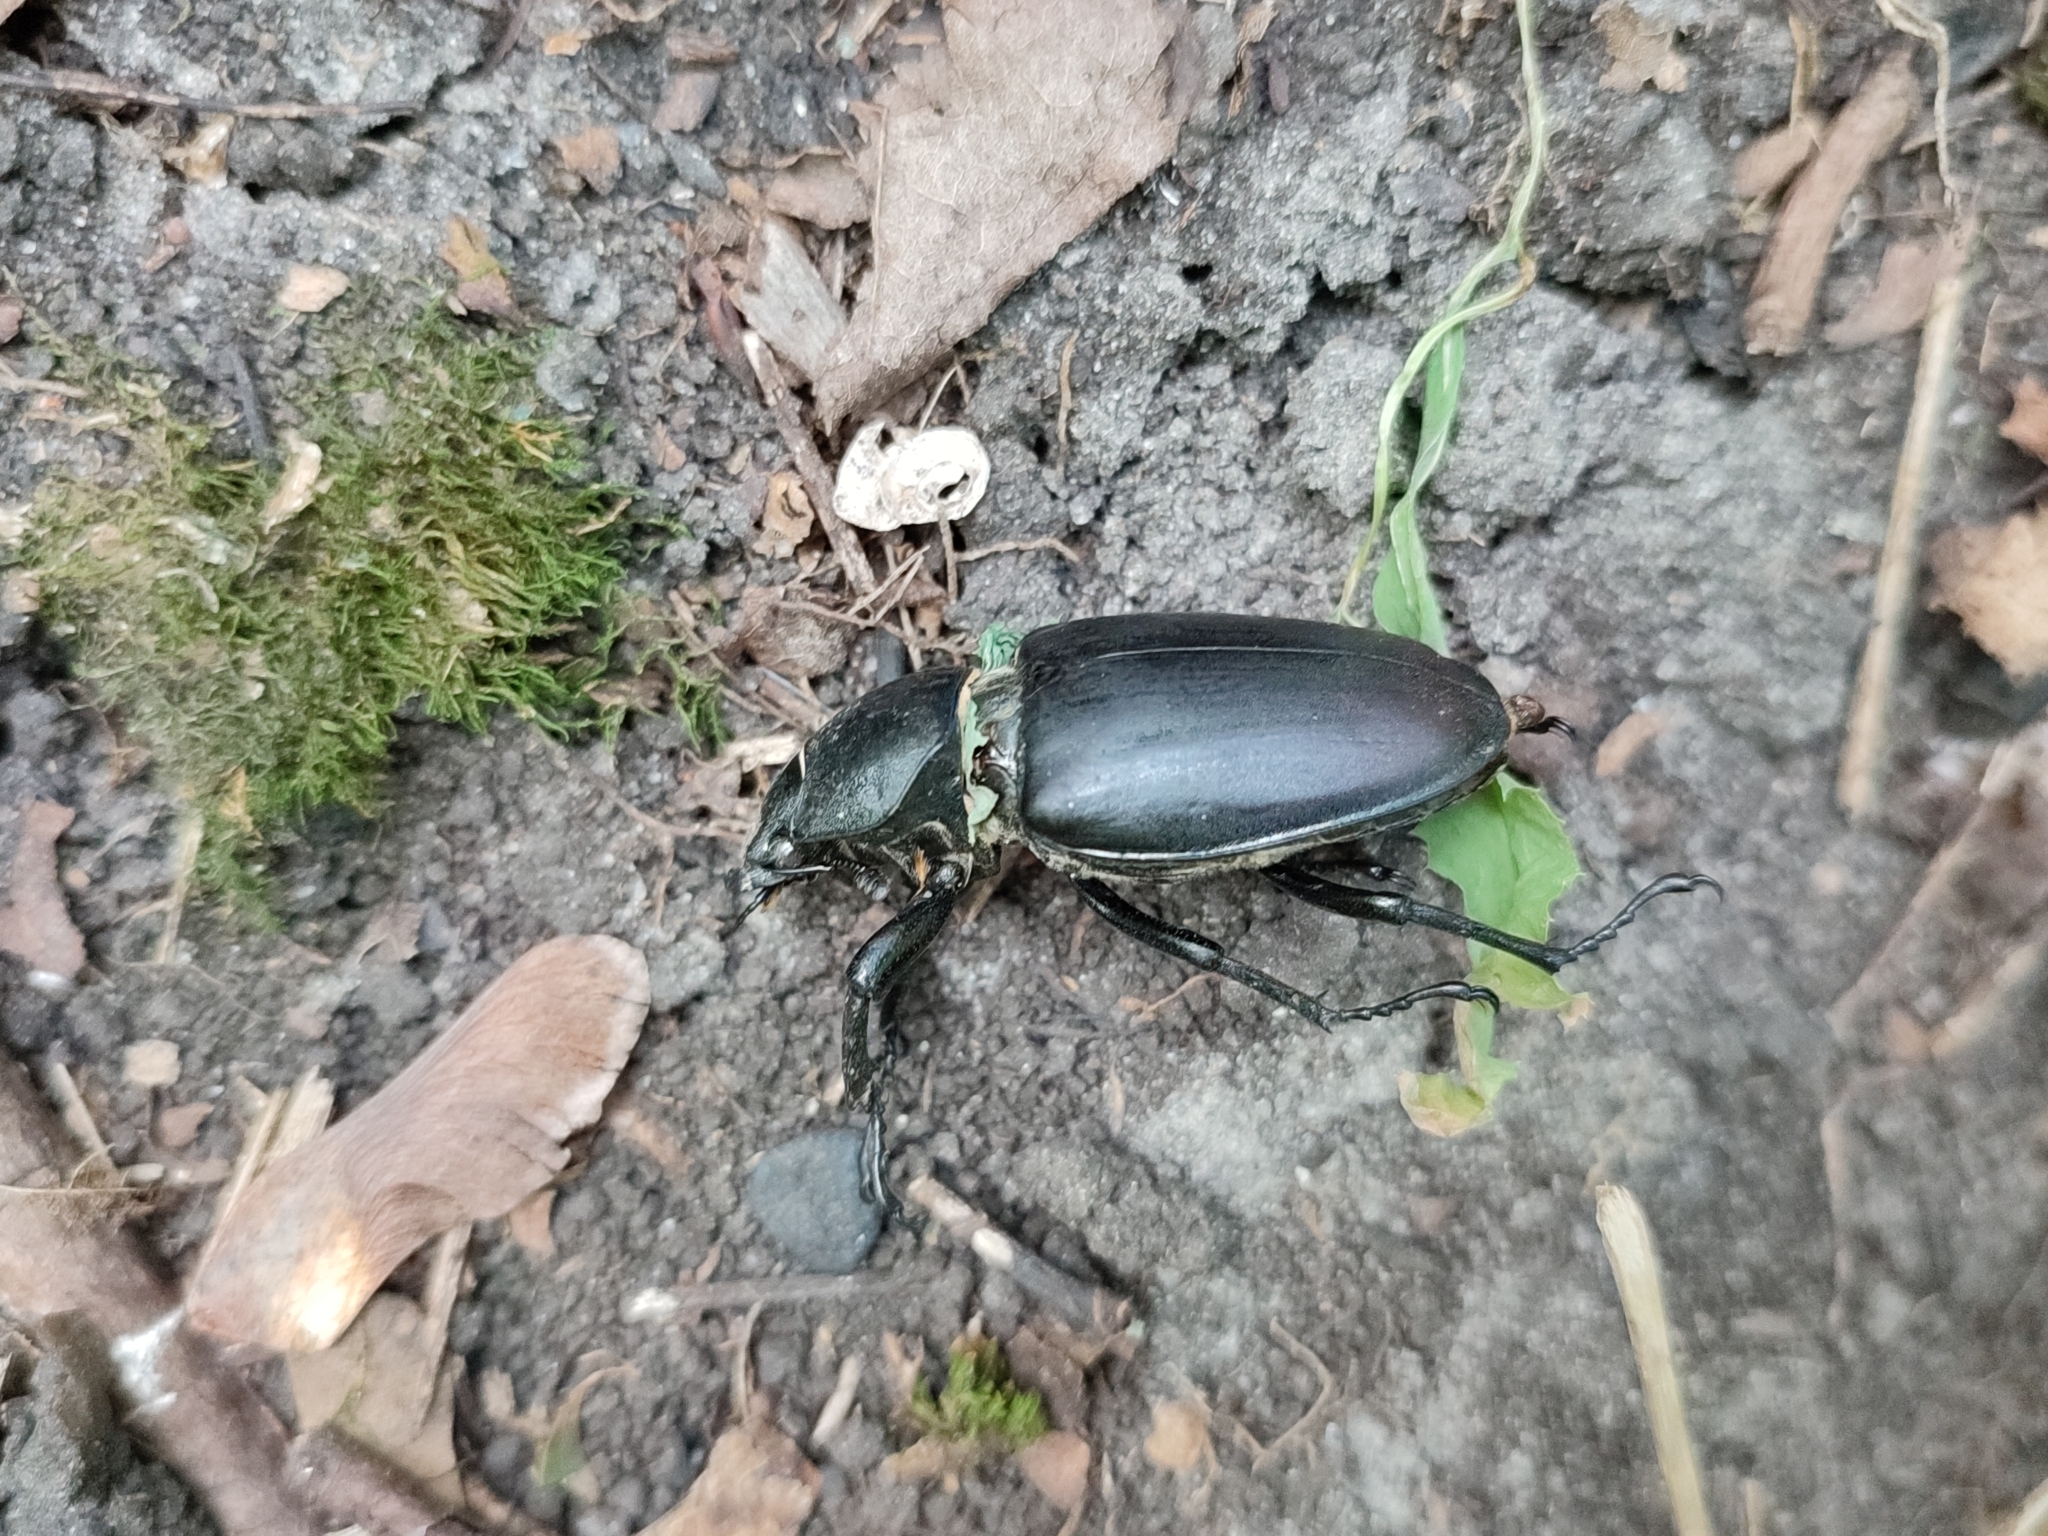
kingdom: Animalia
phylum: Arthropoda
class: Insecta
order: Coleoptera
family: Lucanidae
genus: Lucanus
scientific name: Lucanus cervus
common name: Stag beetle
